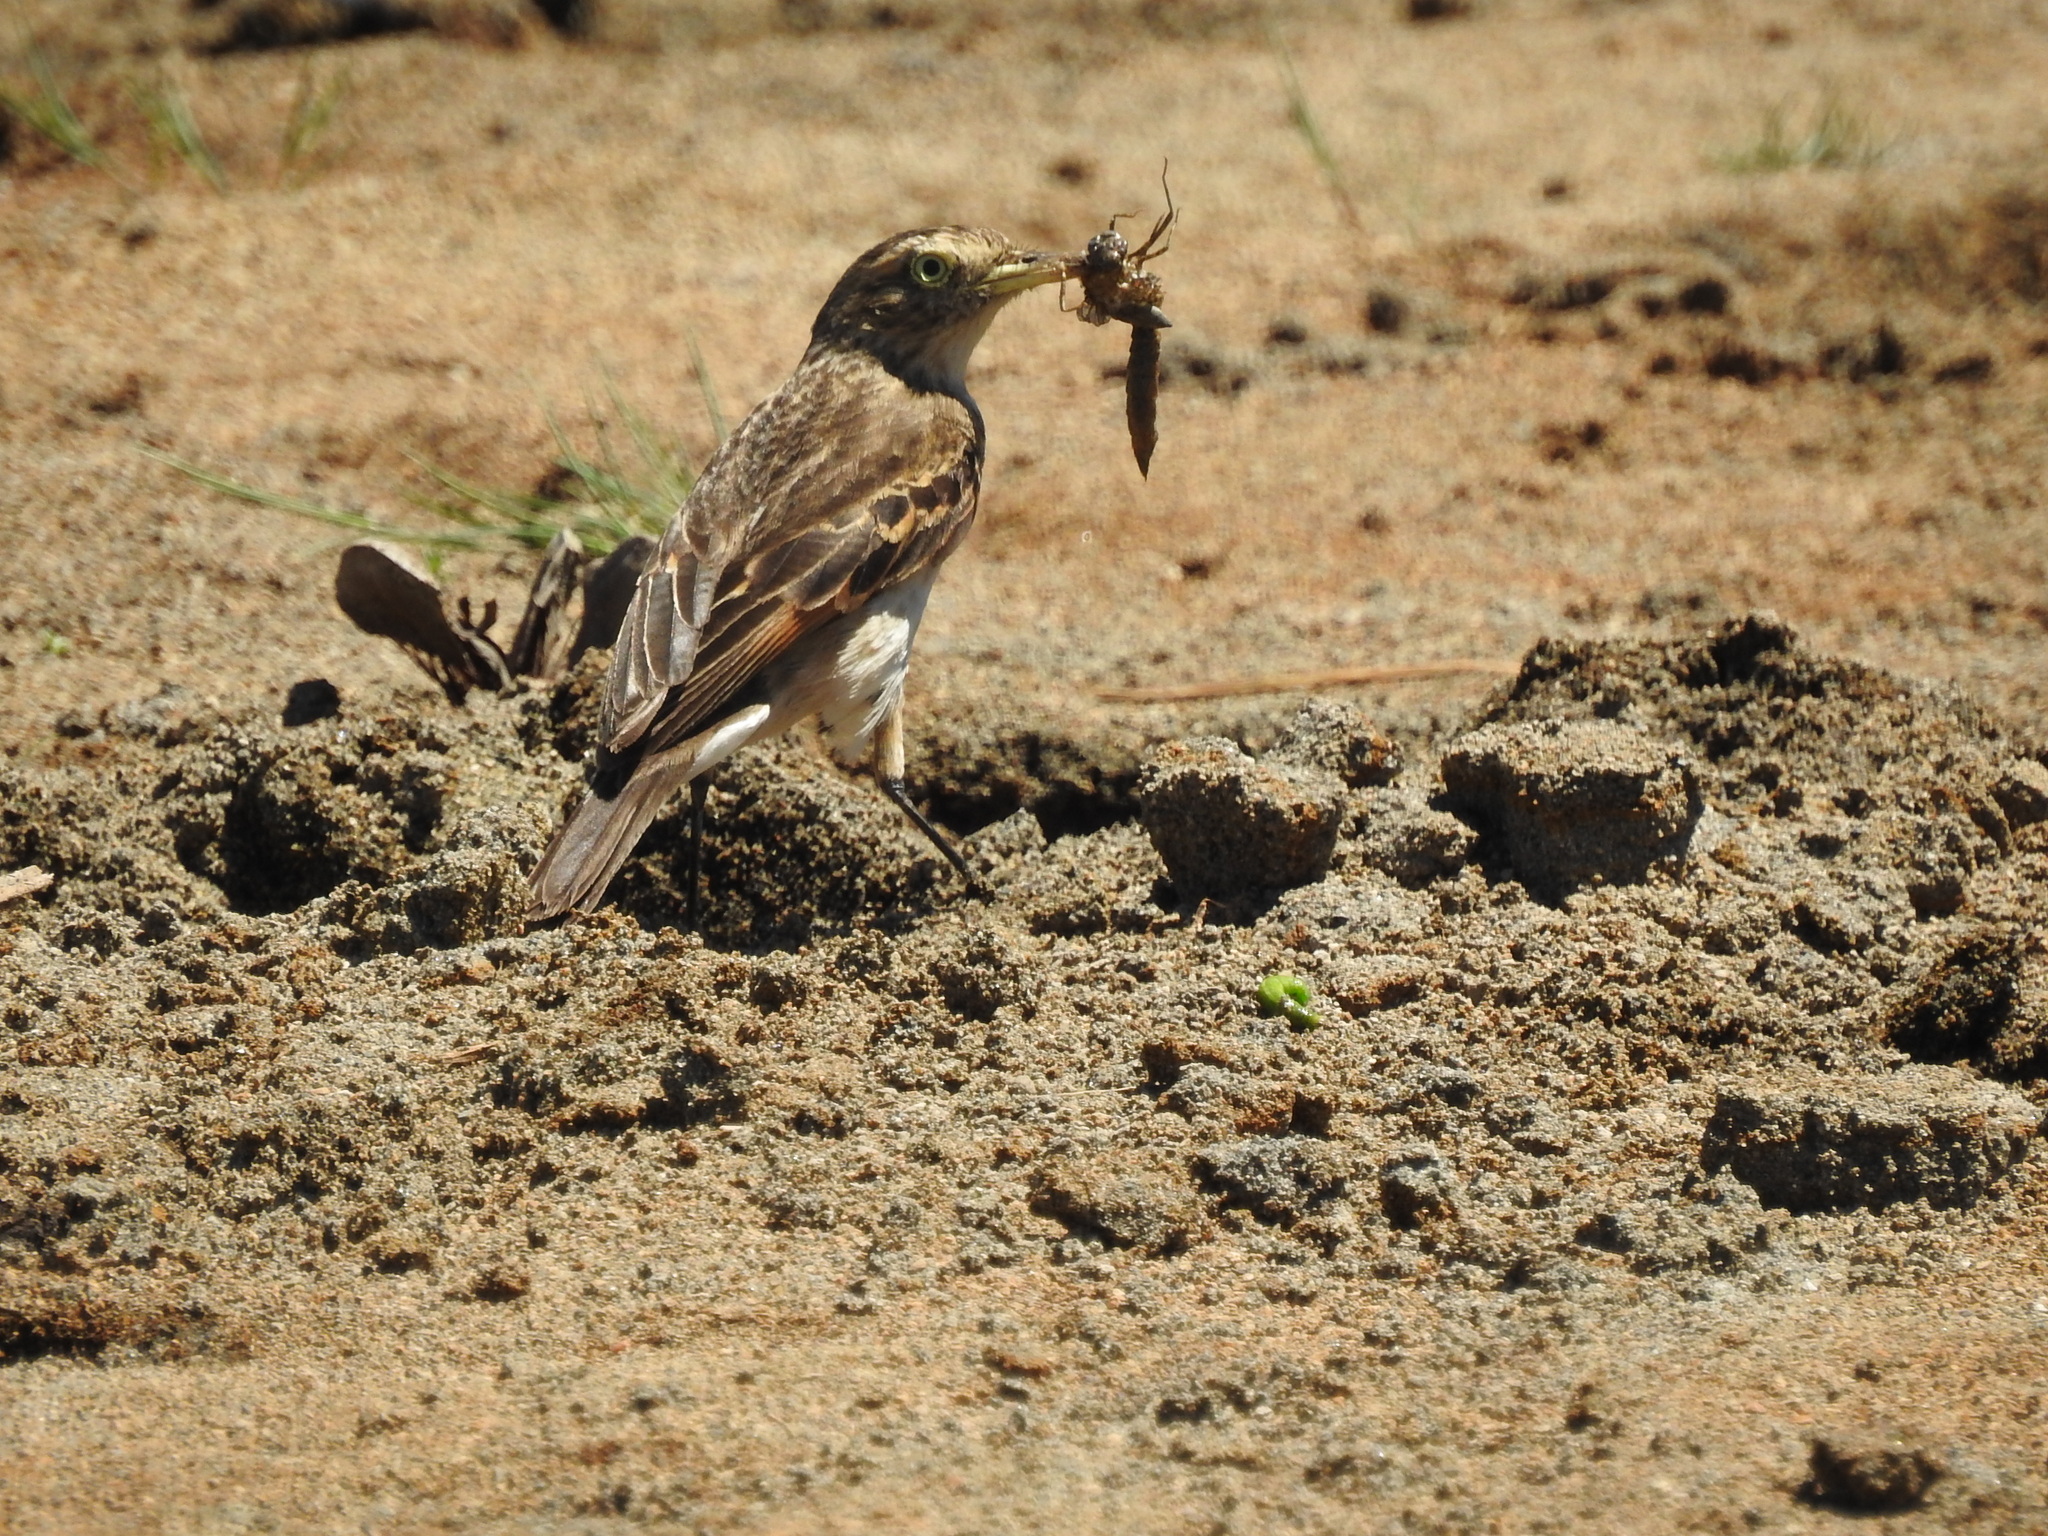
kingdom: Animalia
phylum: Chordata
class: Aves
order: Passeriformes
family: Tyrannidae
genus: Hymenops
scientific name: Hymenops perspicillatus
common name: Spectacled tyrant
